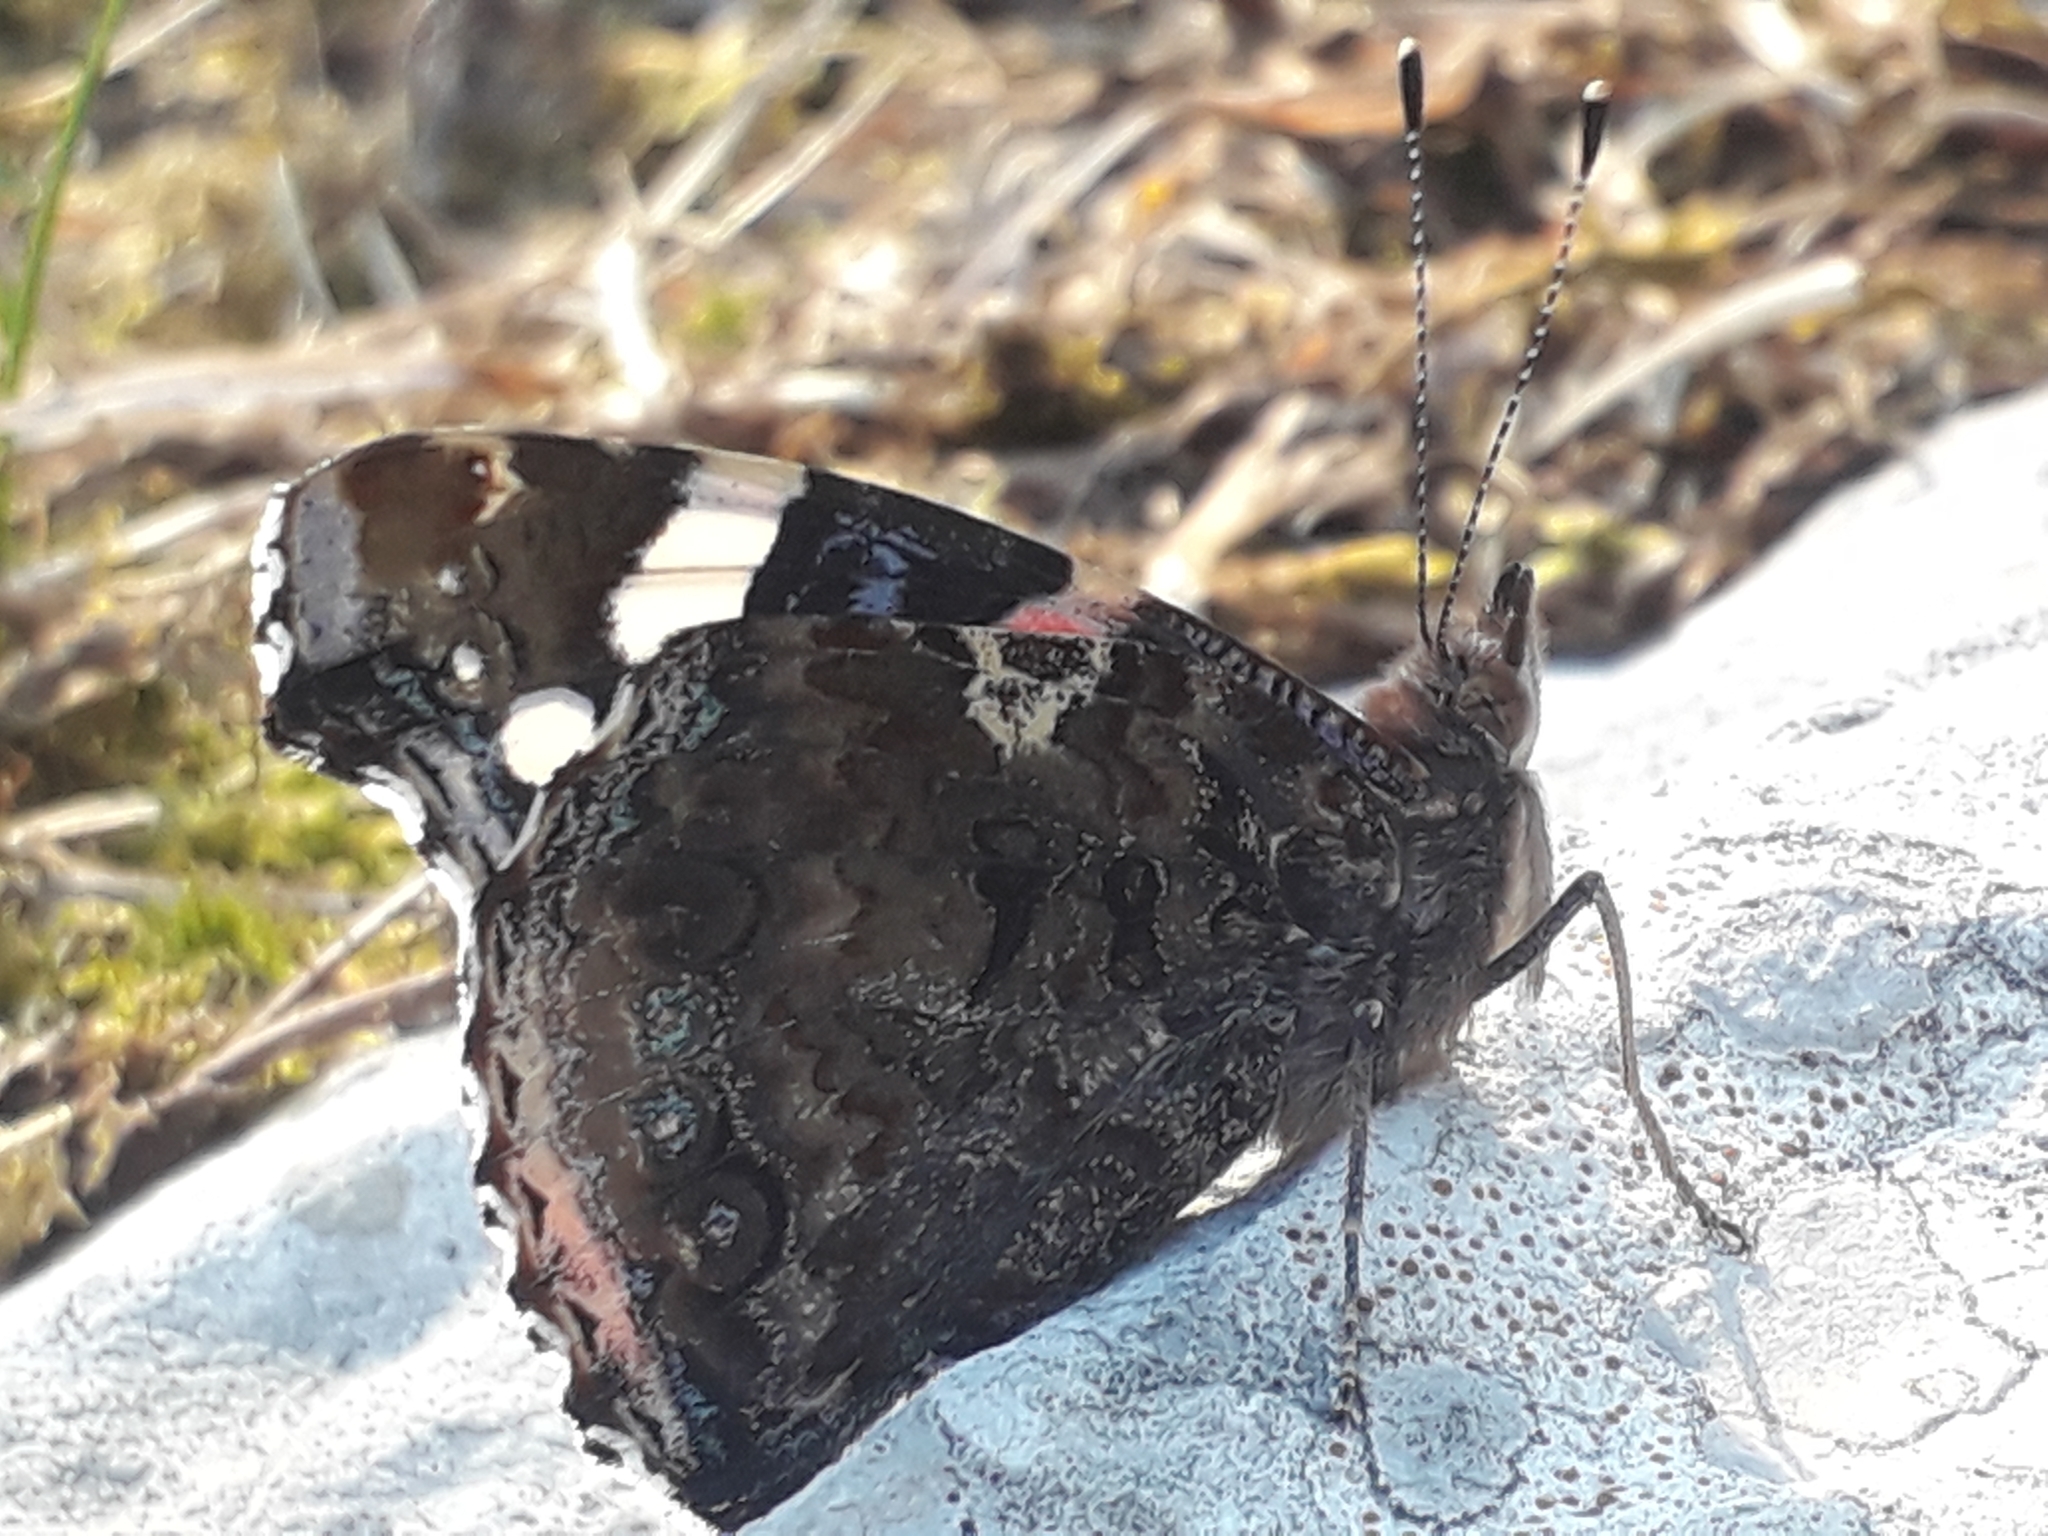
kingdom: Animalia
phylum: Arthropoda
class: Insecta
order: Lepidoptera
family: Nymphalidae
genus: Vanessa
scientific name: Vanessa atalanta
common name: Red admiral
